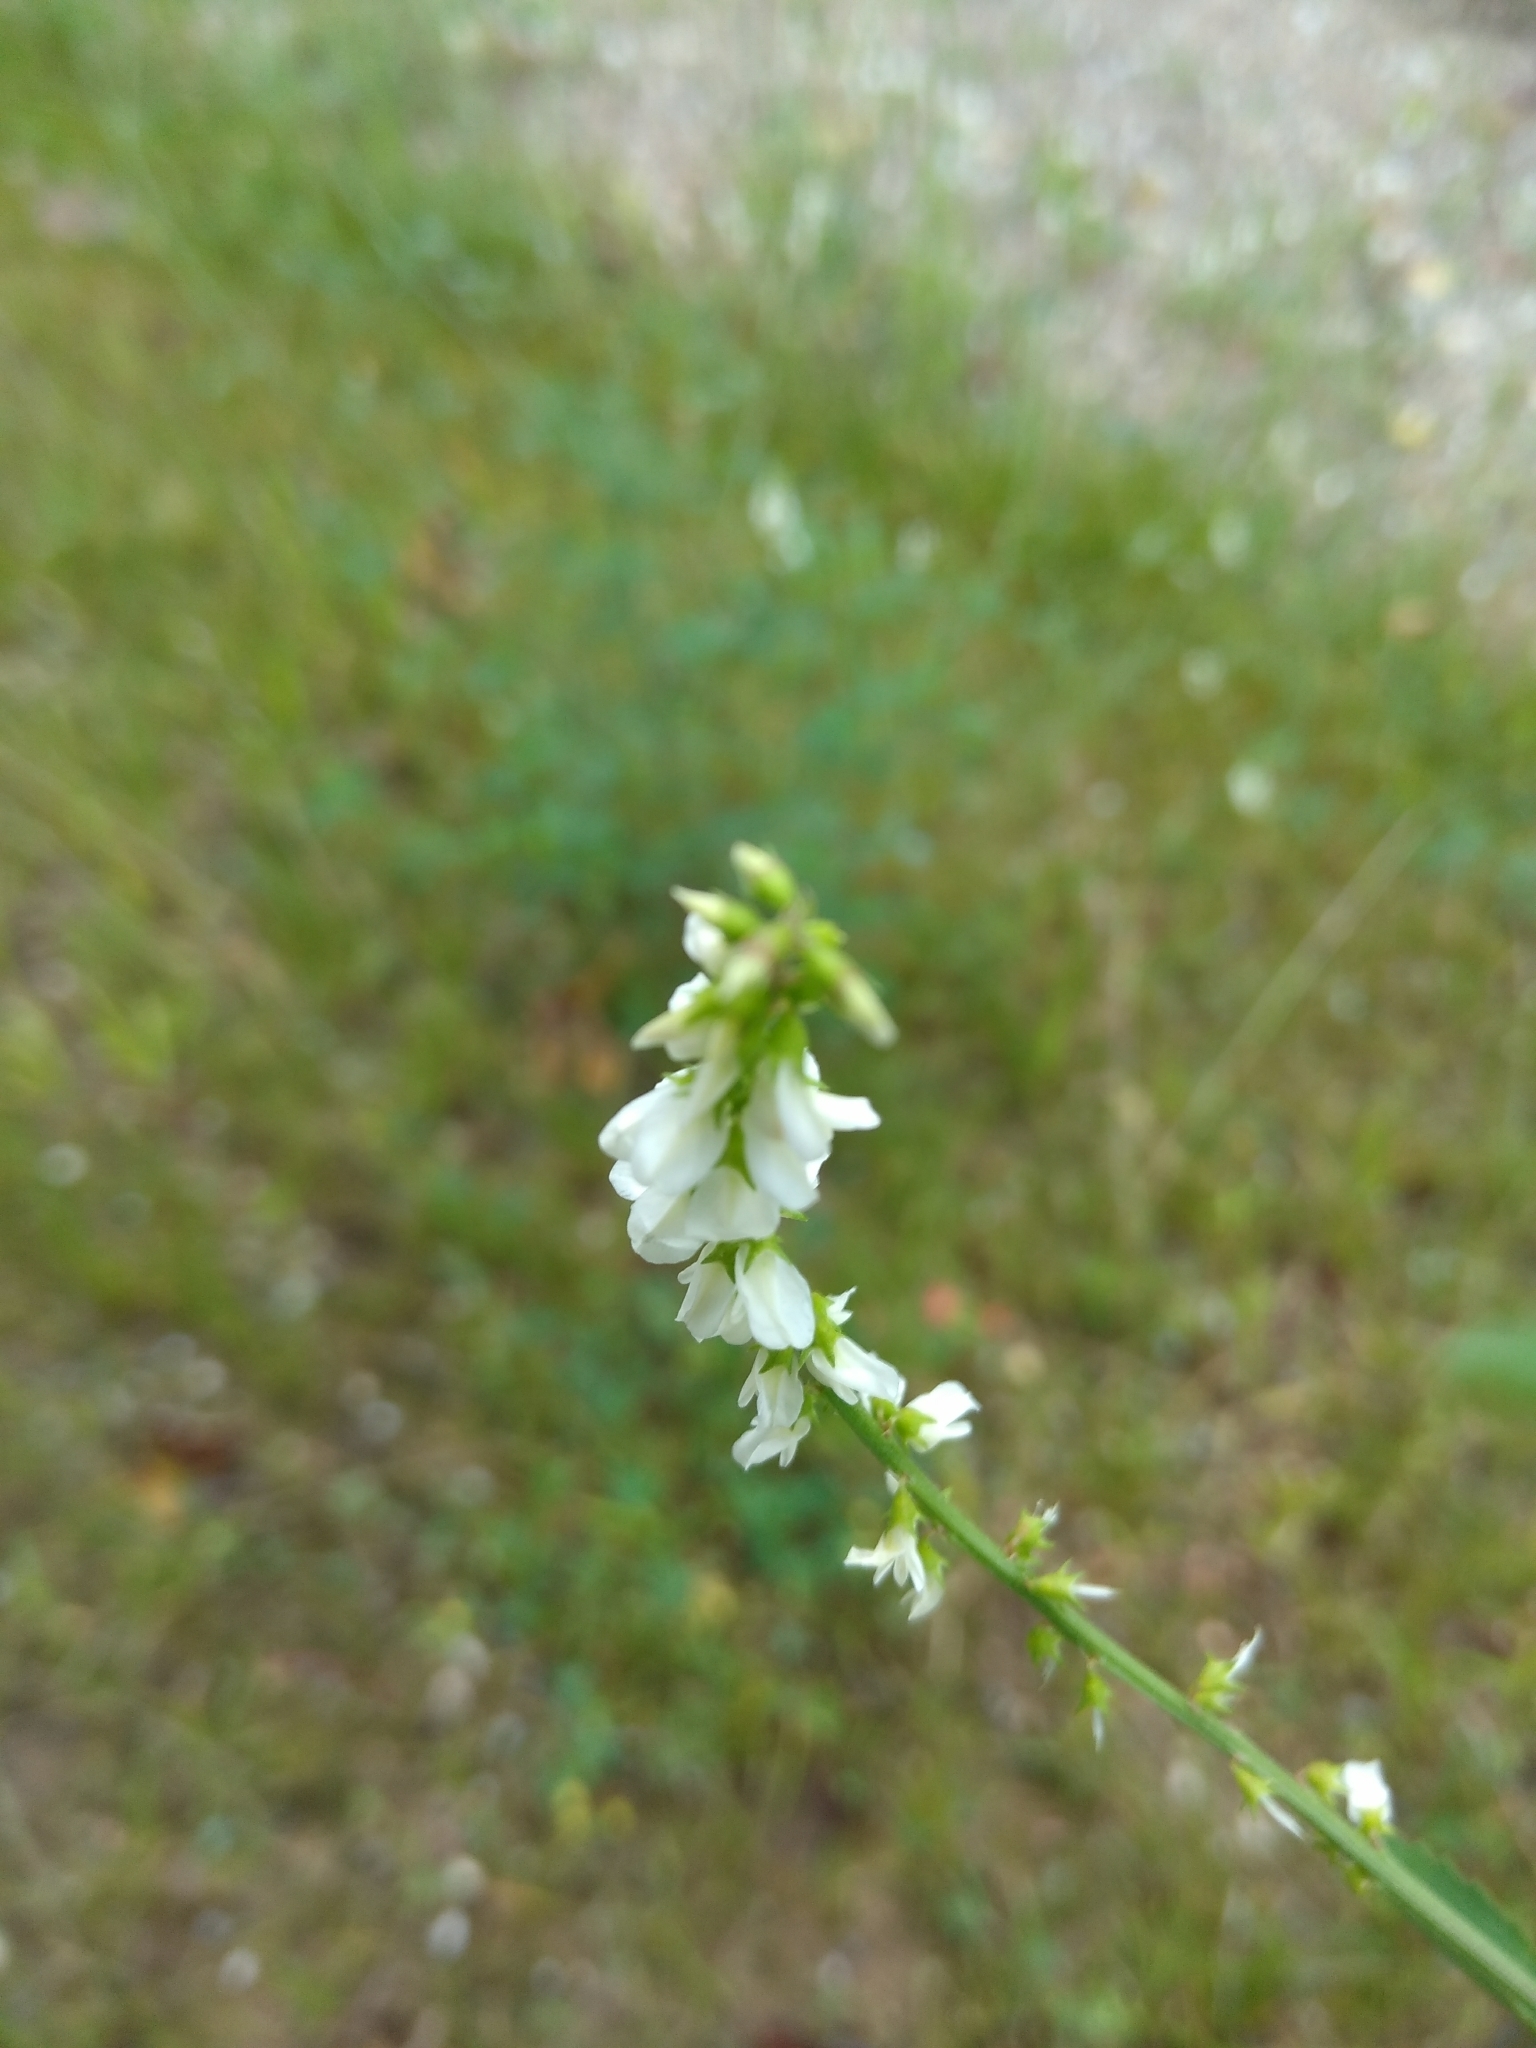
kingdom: Plantae
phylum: Tracheophyta
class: Magnoliopsida
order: Fabales
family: Fabaceae
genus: Melilotus
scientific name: Melilotus albus
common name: White melilot
